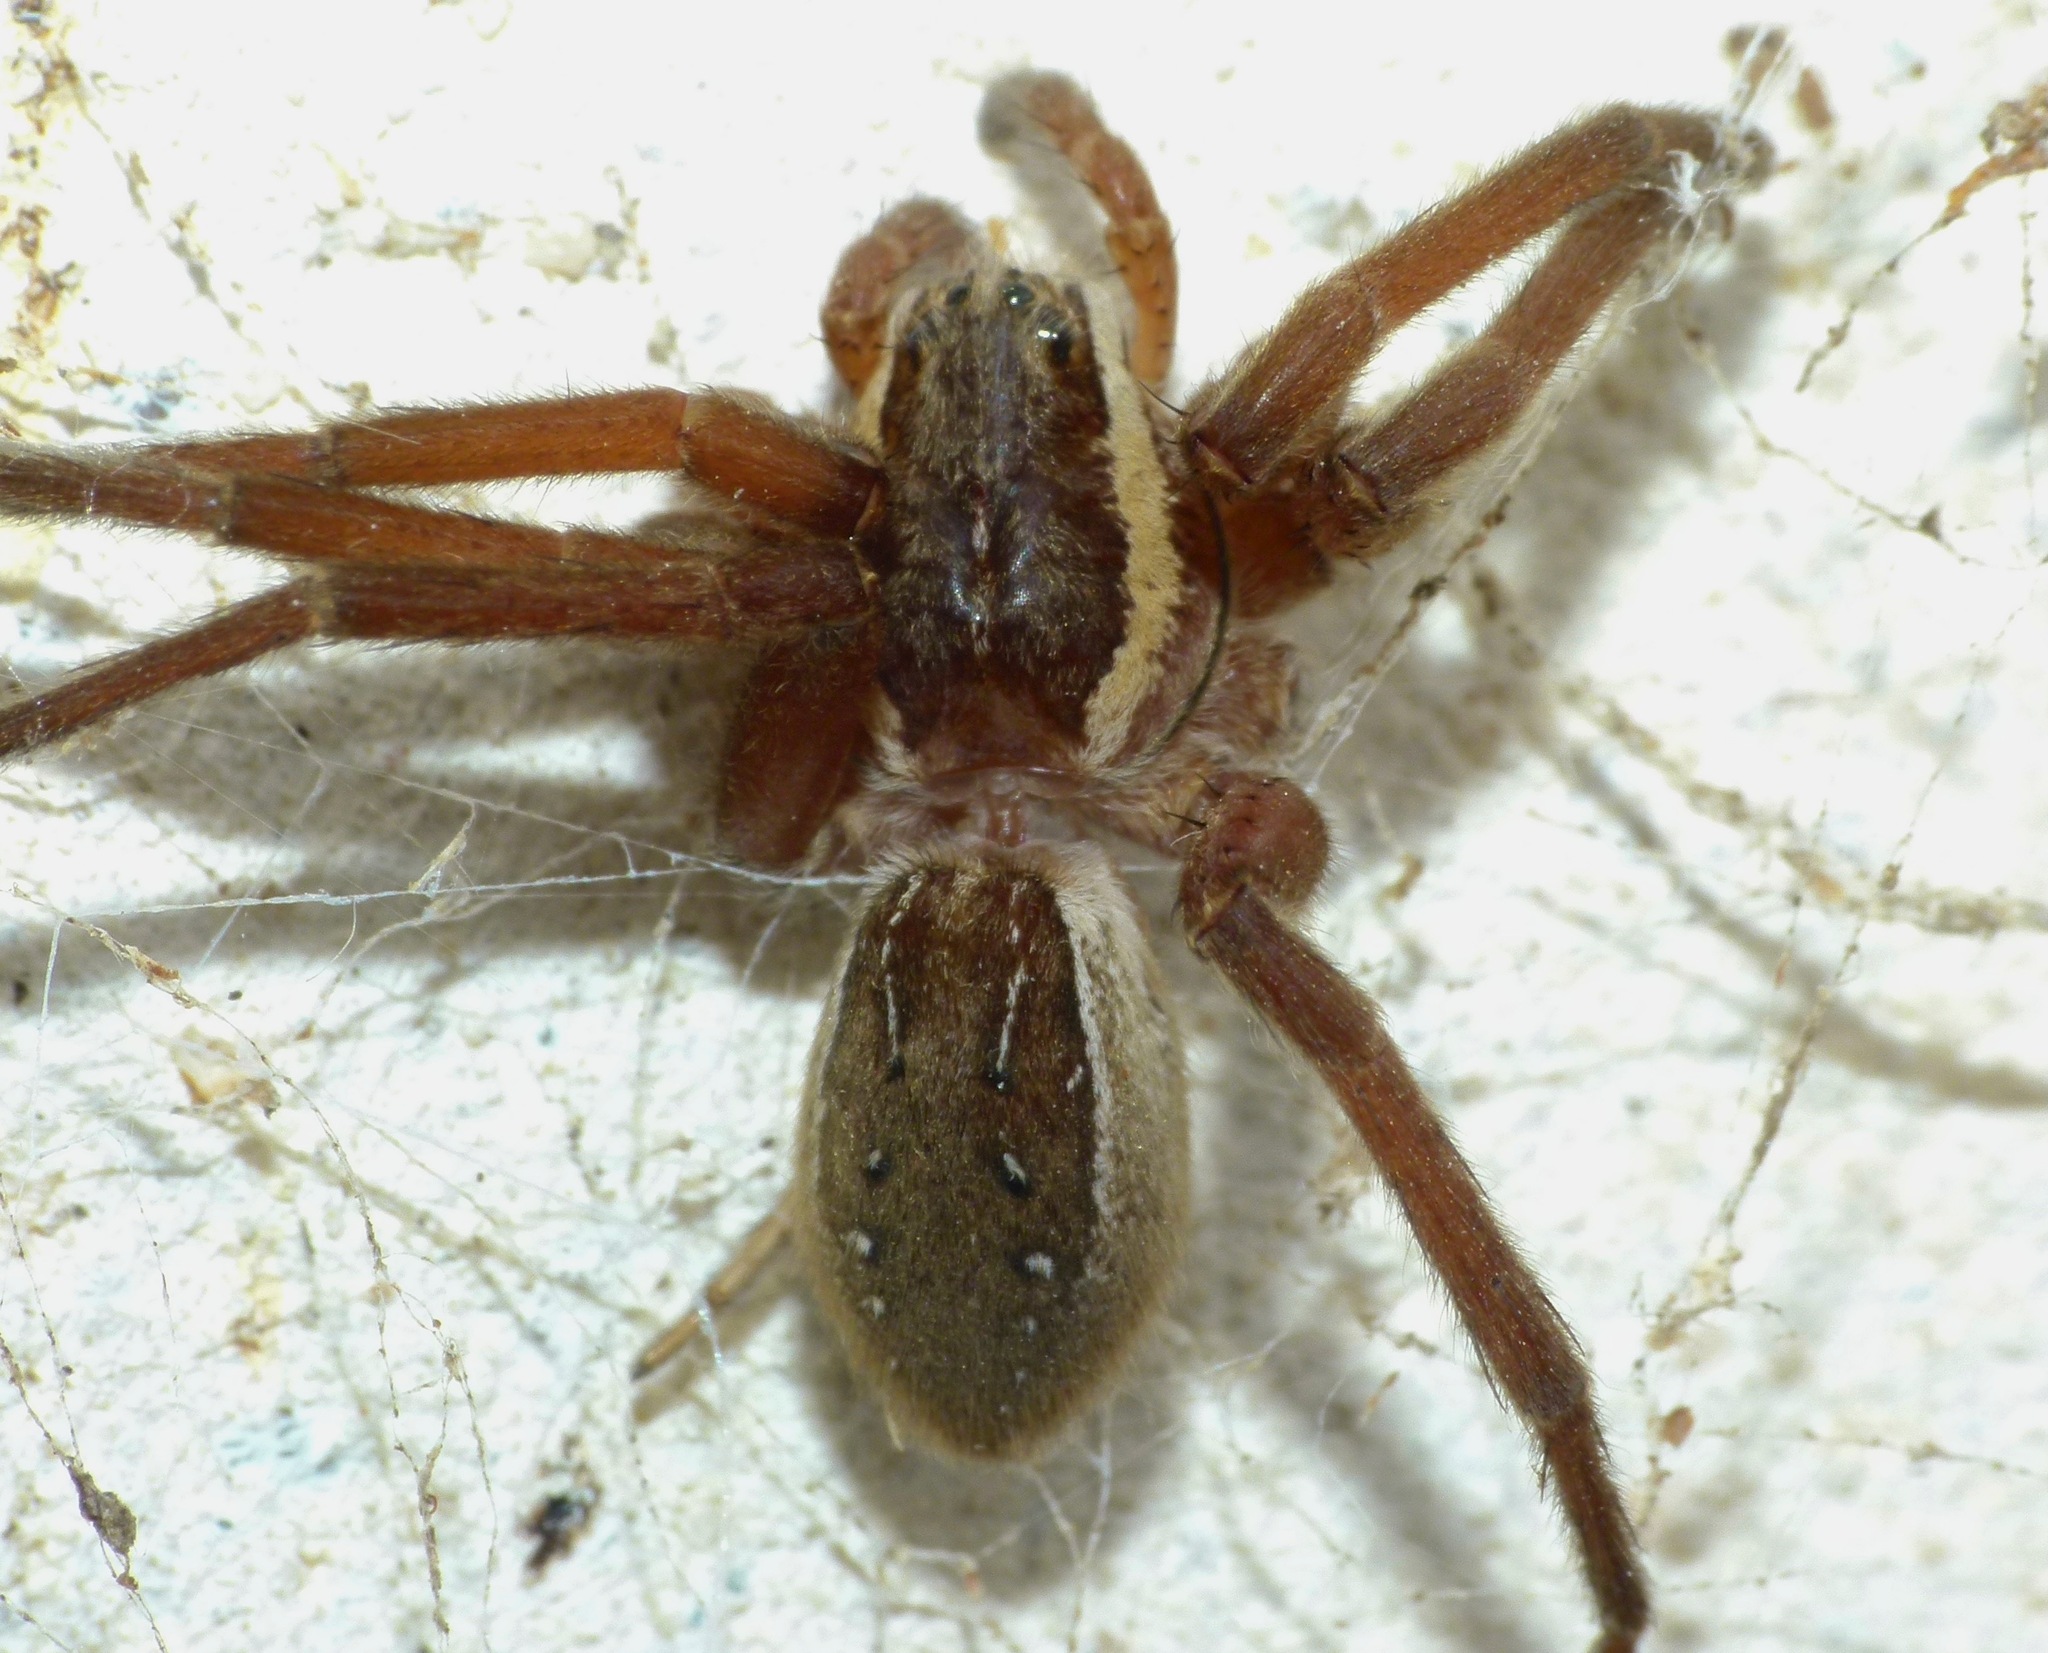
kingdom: Animalia
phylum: Arthropoda
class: Arachnida
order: Araneae
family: Pisauridae
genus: Dolomedes
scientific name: Dolomedes minor
